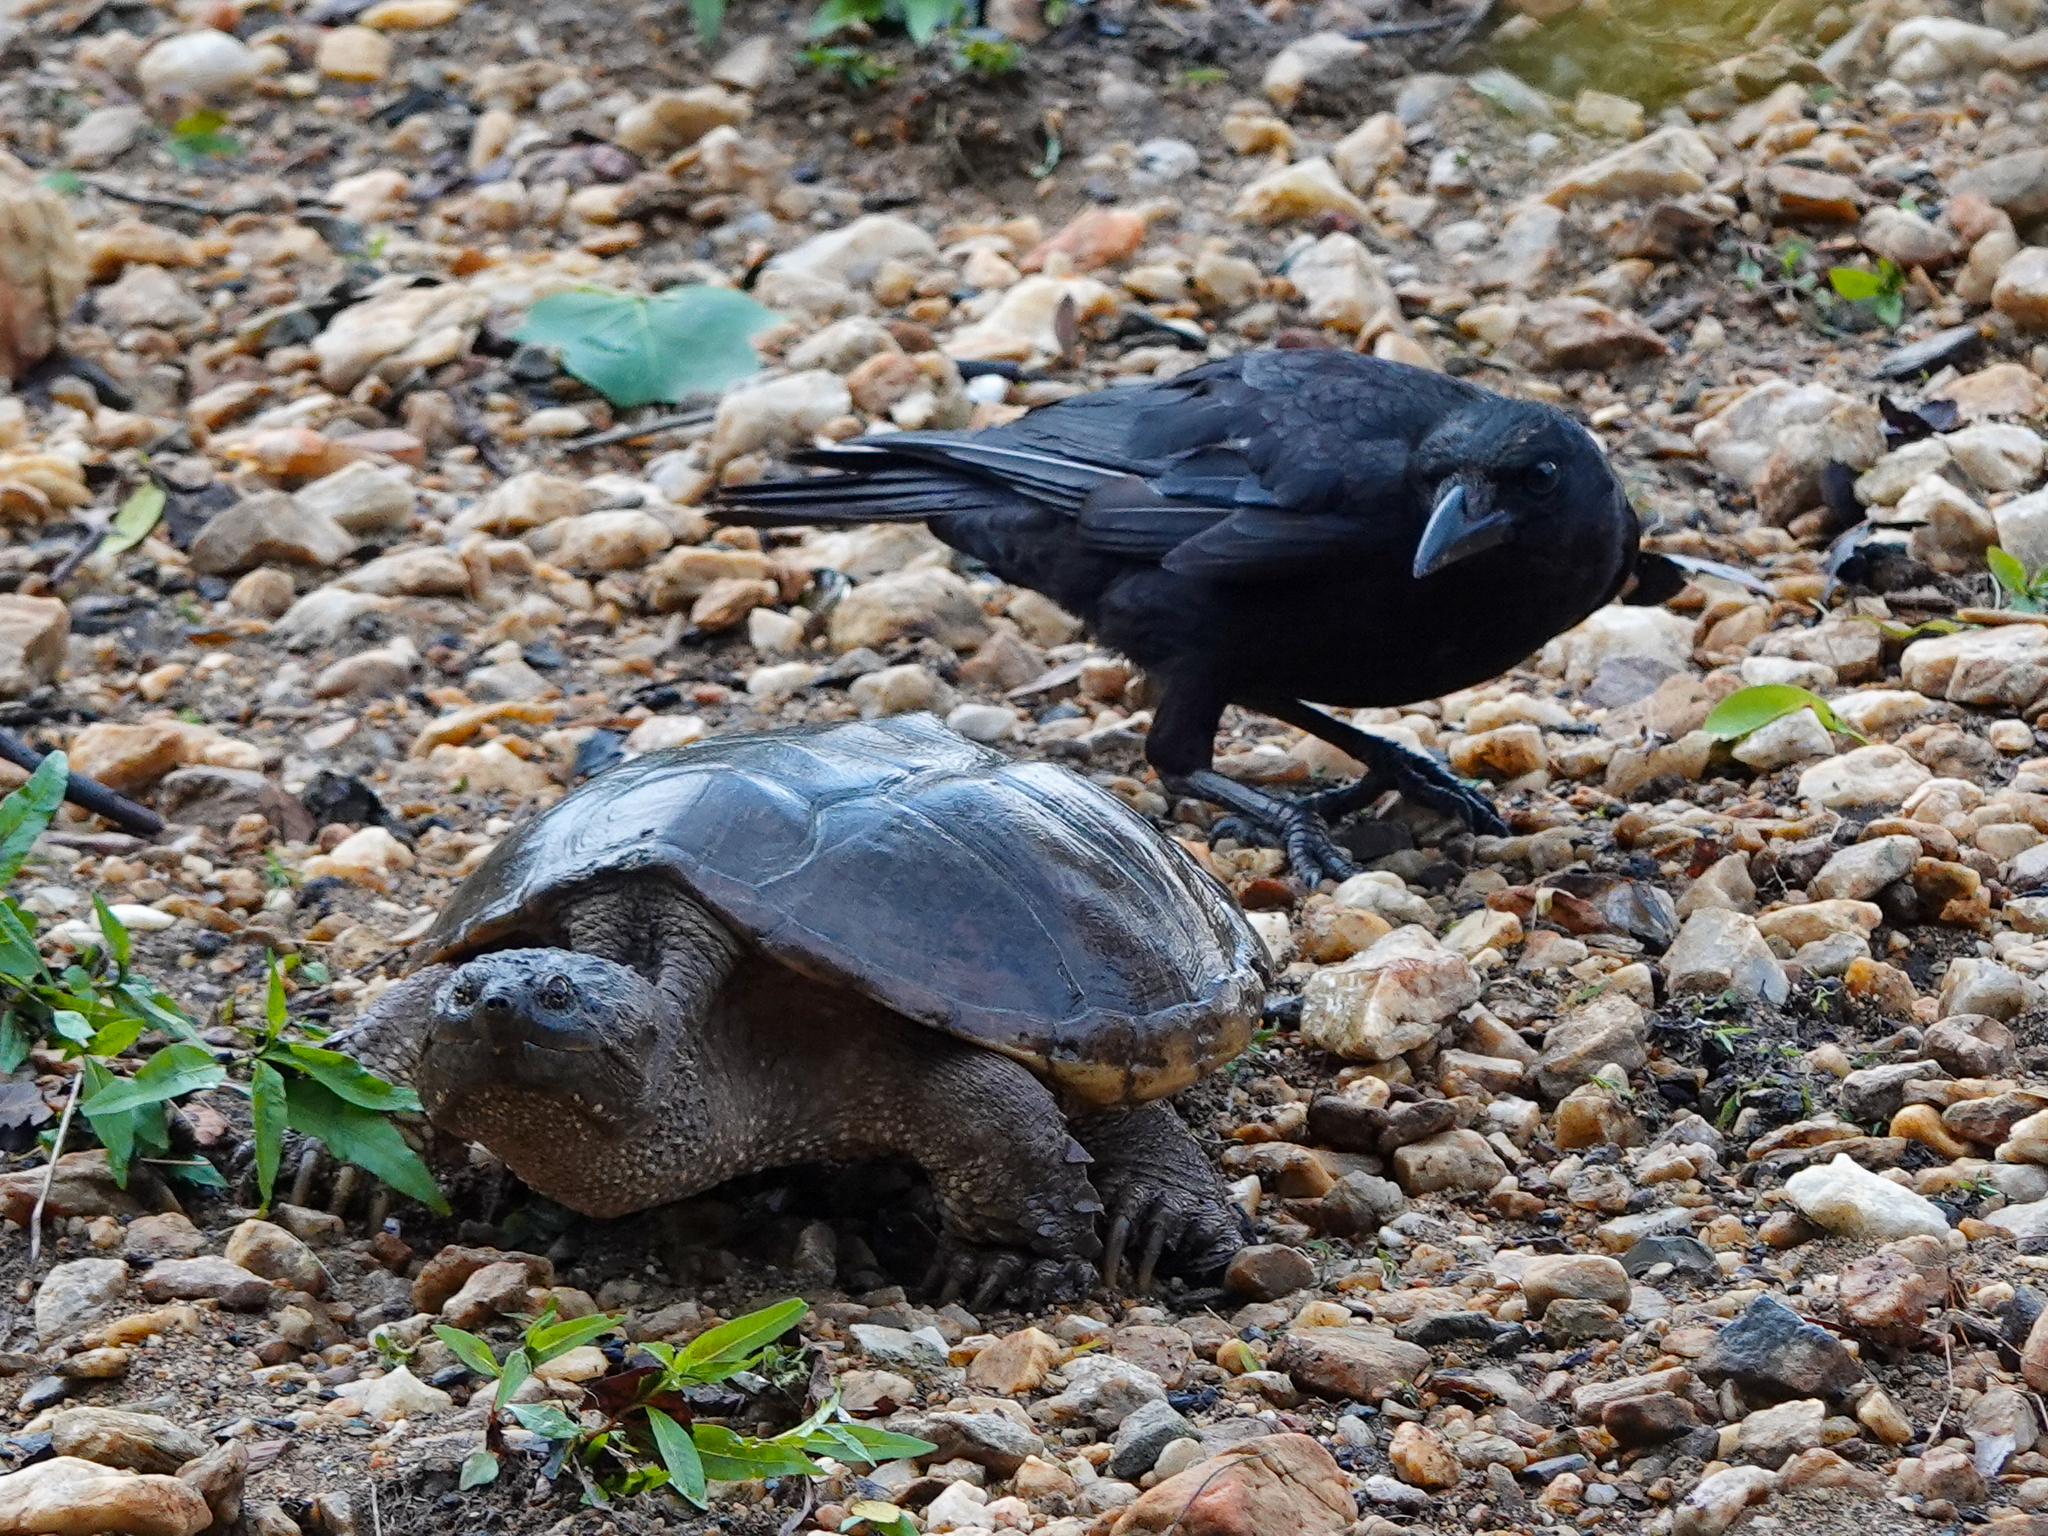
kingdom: Animalia
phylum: Chordata
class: Testudines
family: Chelydridae
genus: Chelydra
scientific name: Chelydra serpentina
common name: Common snapping turtle
